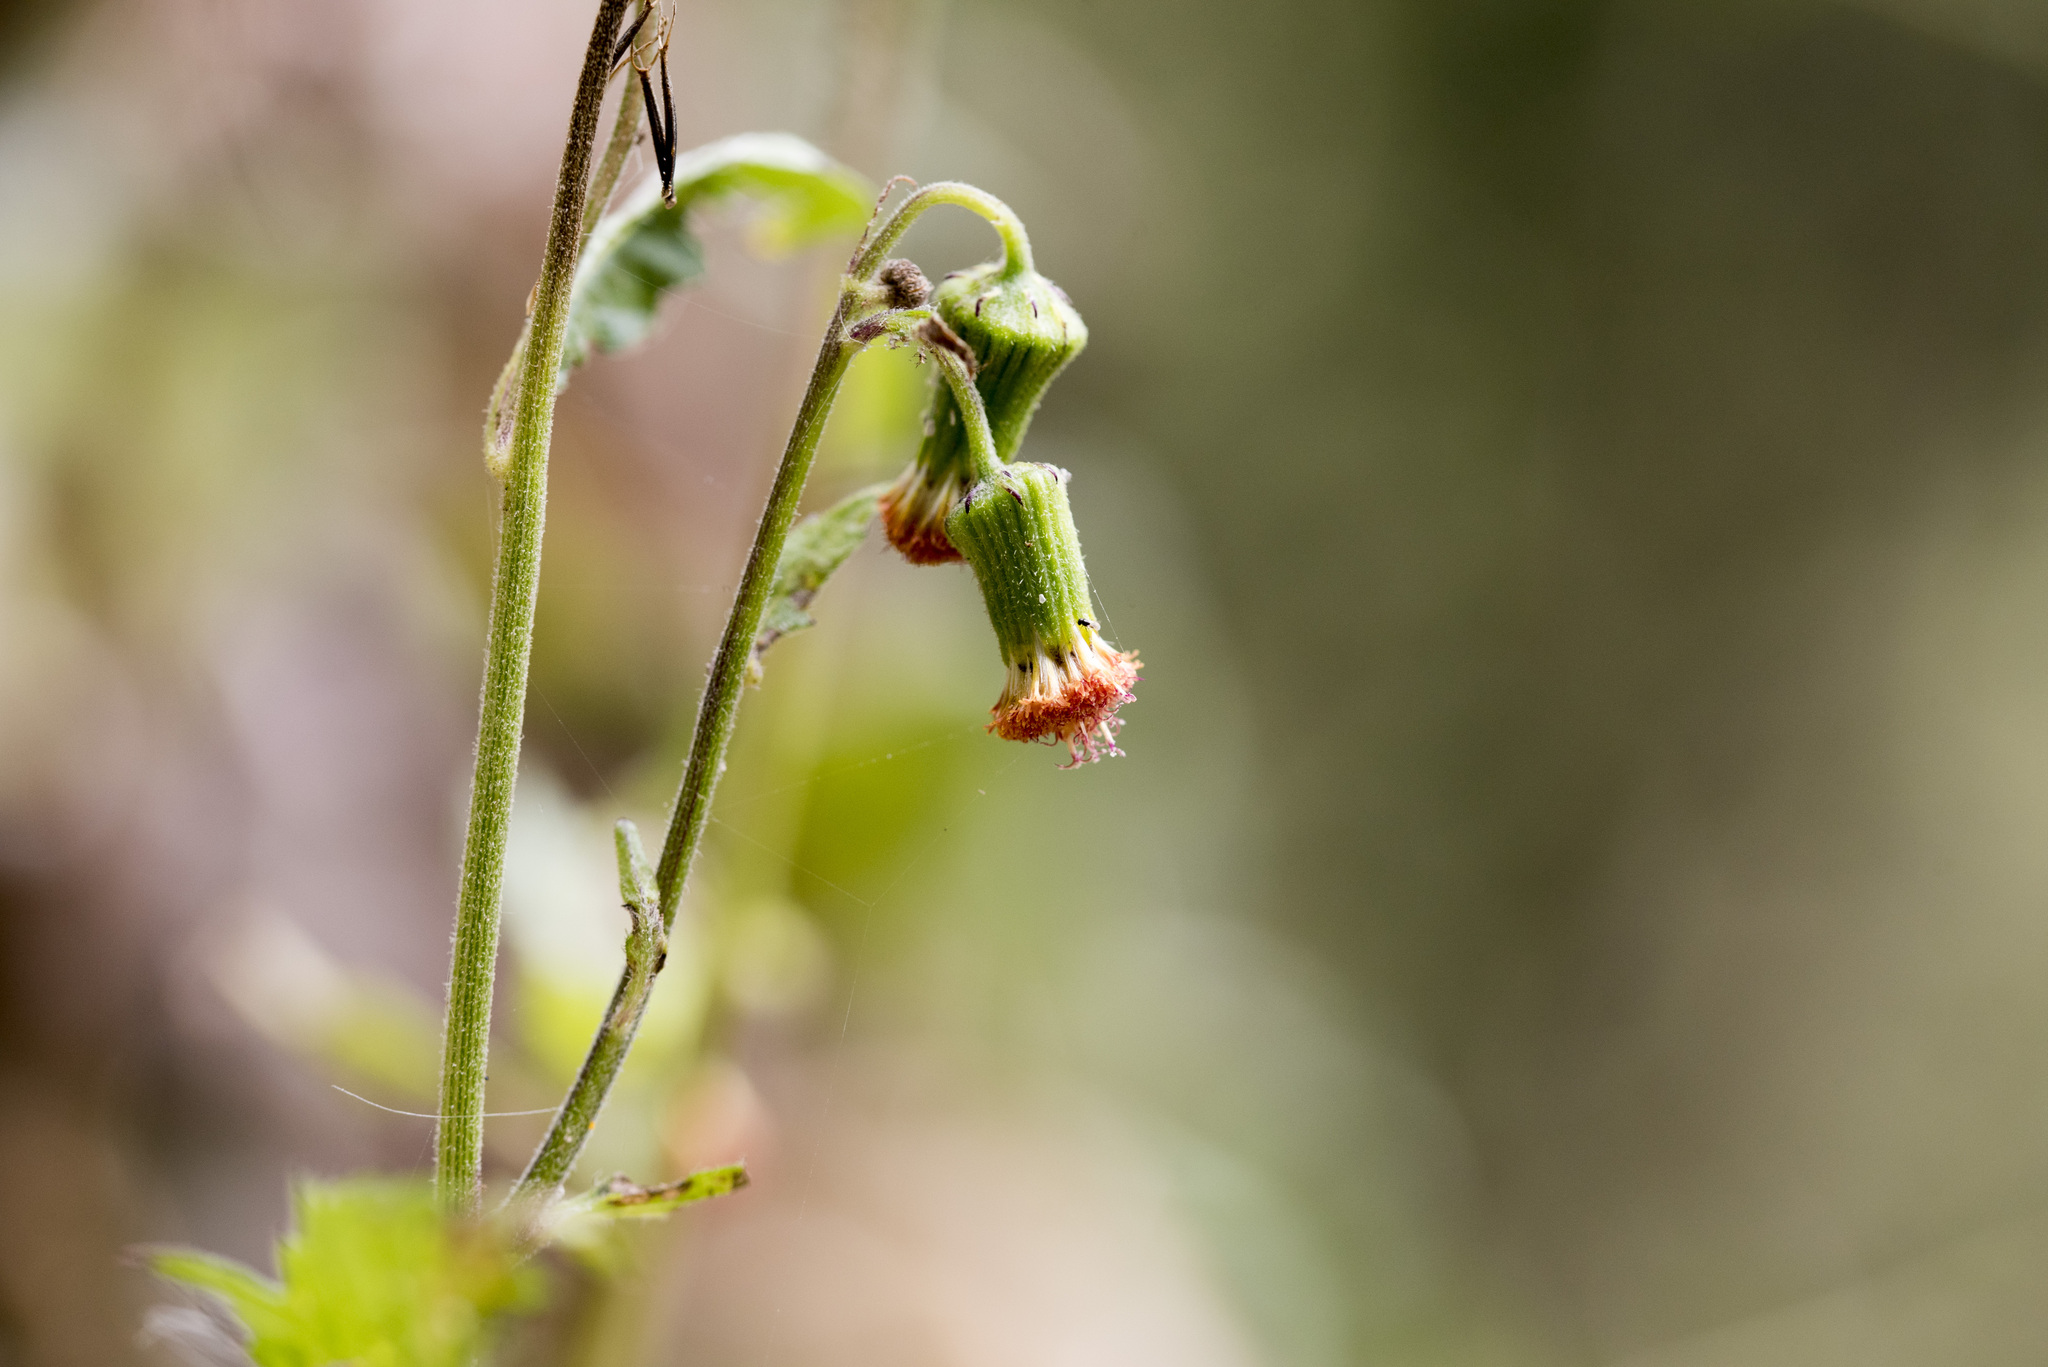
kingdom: Plantae
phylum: Tracheophyta
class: Magnoliopsida
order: Asterales
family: Asteraceae
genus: Crassocephalum
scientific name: Crassocephalum crepidioides
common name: Redflower ragleaf
